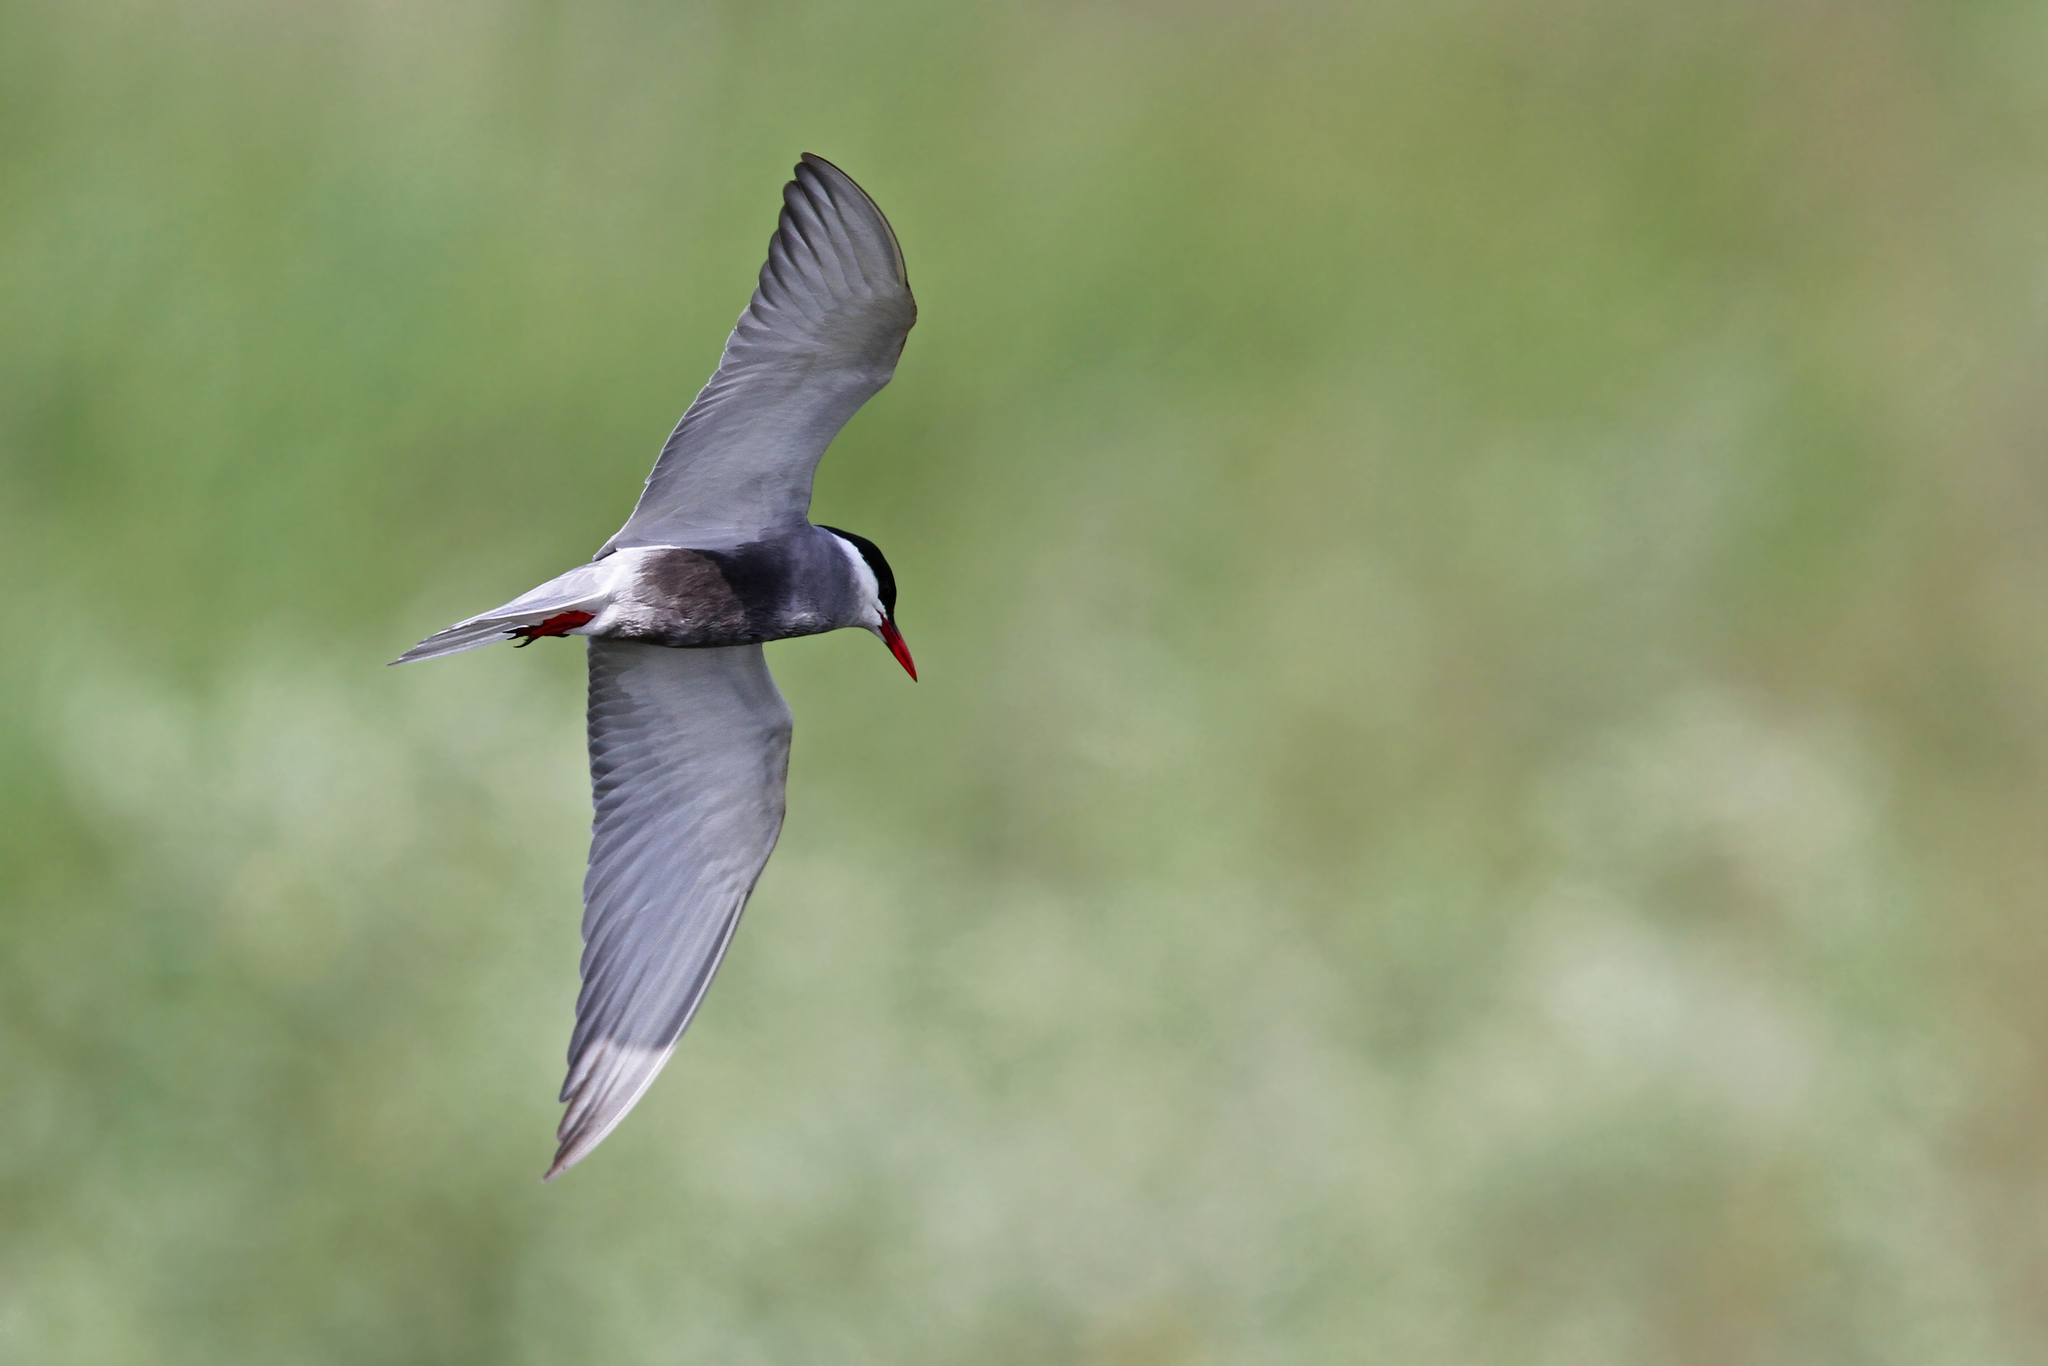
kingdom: Animalia
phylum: Chordata
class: Aves
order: Charadriiformes
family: Laridae
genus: Chlidonias
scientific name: Chlidonias hybrida
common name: Whiskered tern
